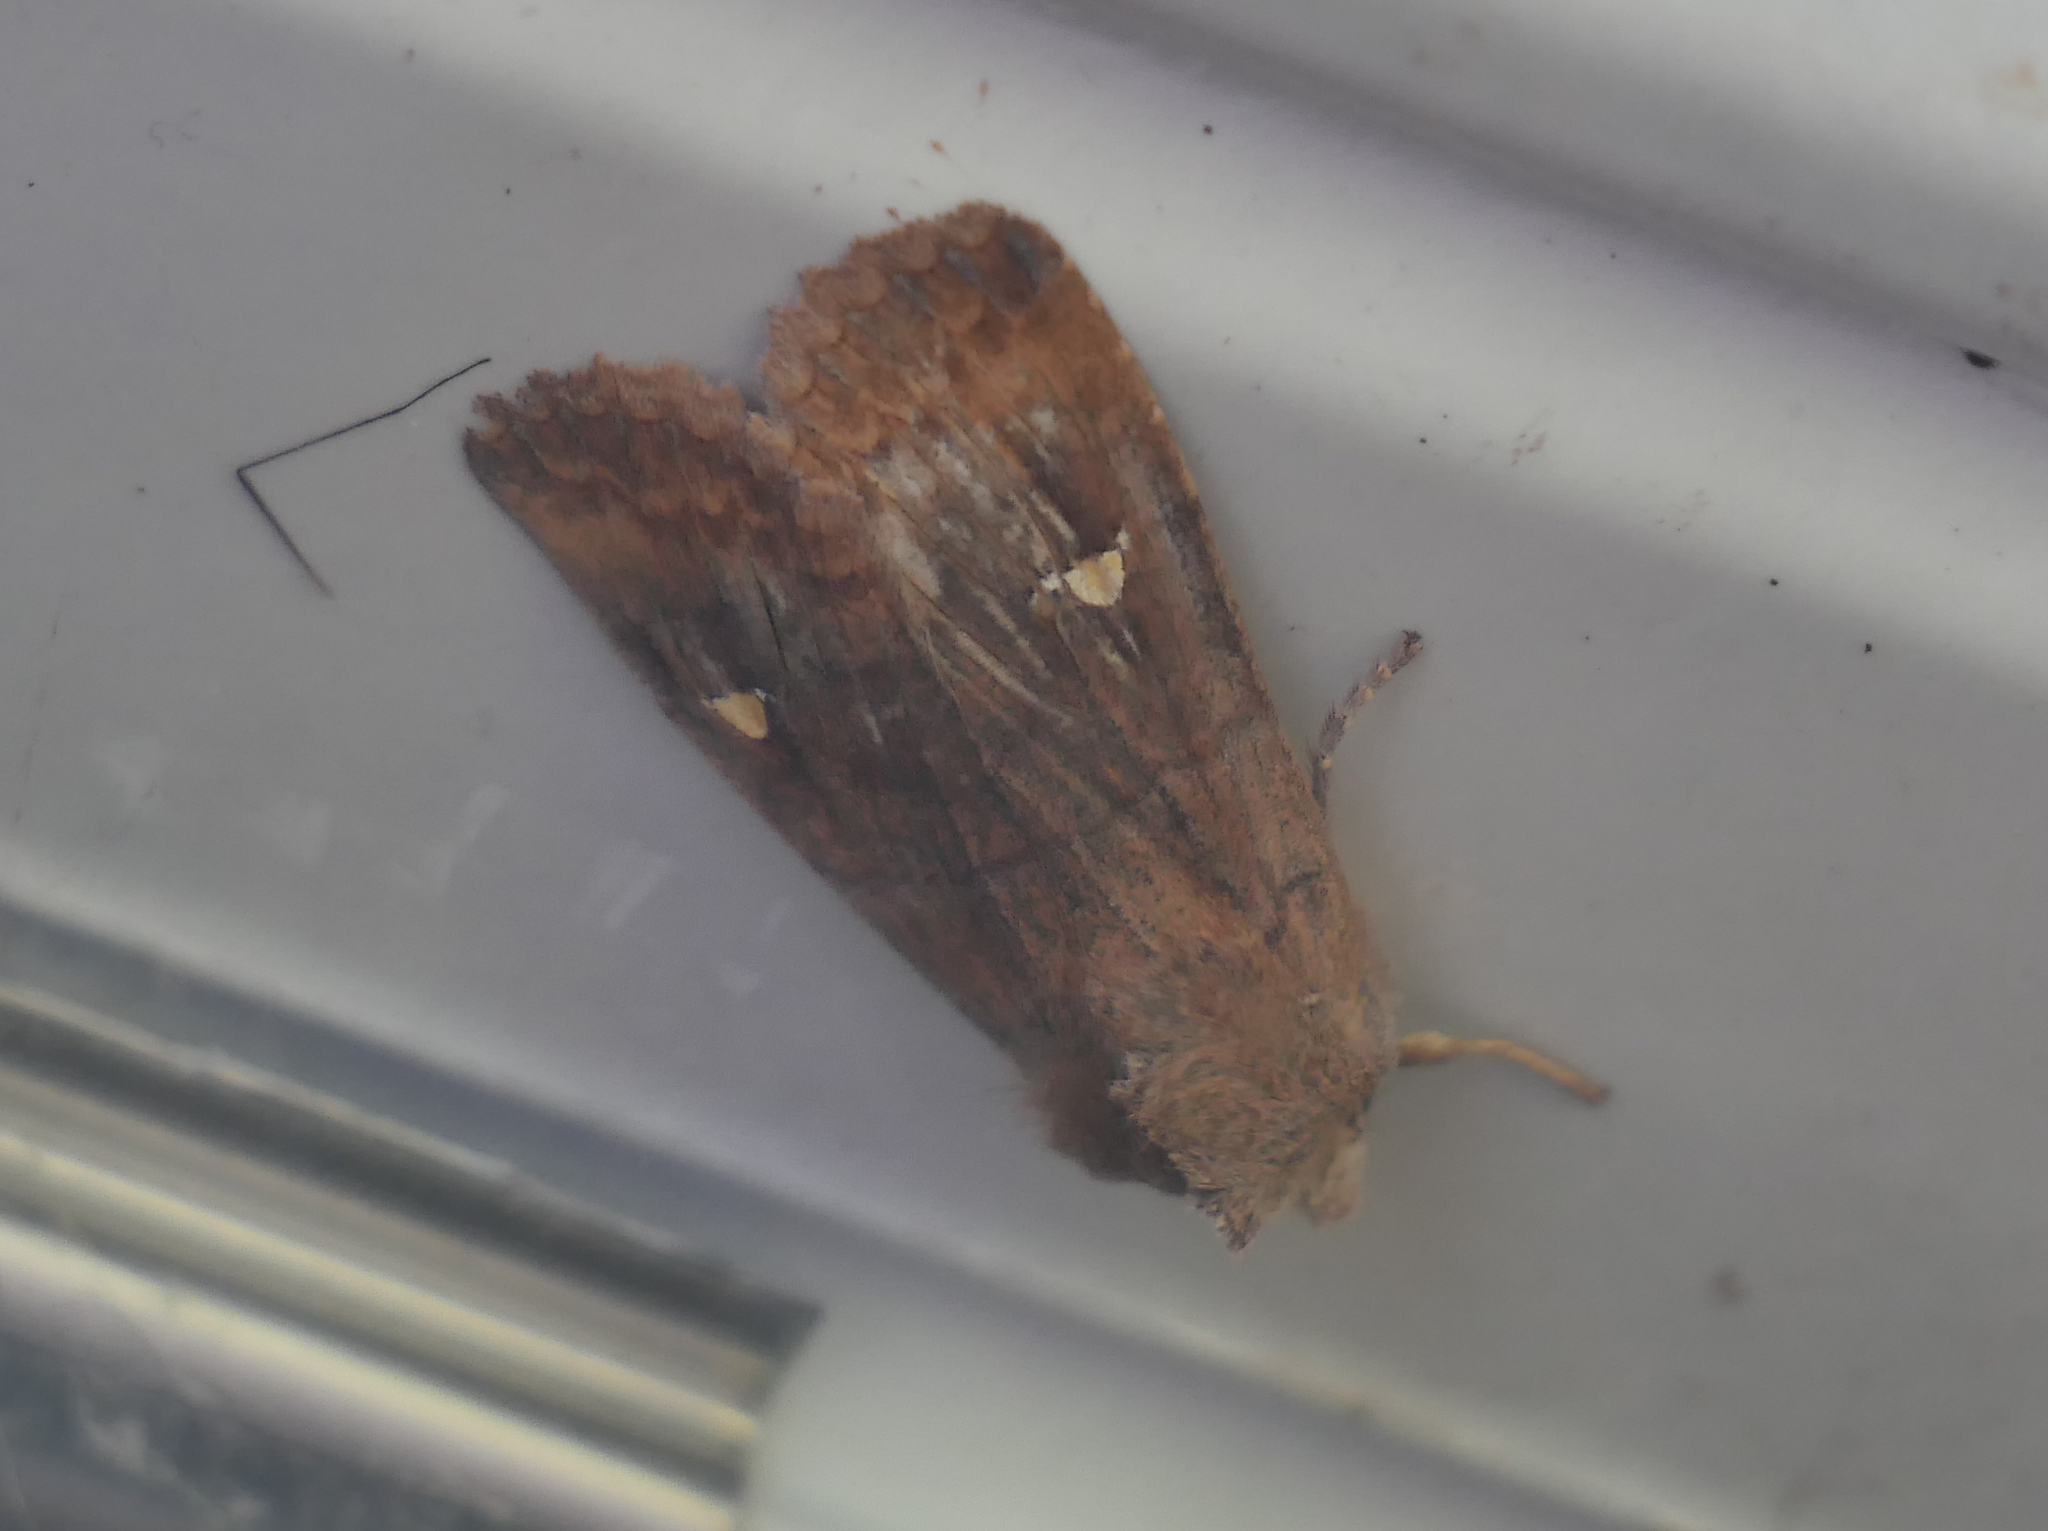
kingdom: Animalia
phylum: Arthropoda
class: Insecta
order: Lepidoptera
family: Noctuidae
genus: Eupsilia
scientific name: Eupsilia transversa
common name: Satellite
